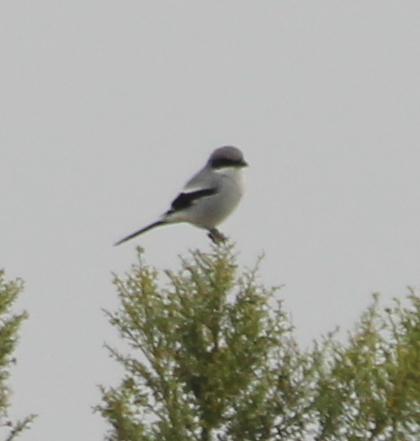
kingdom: Animalia
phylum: Chordata
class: Aves
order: Passeriformes
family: Laniidae
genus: Lanius
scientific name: Lanius ludovicianus
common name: Loggerhead shrike
